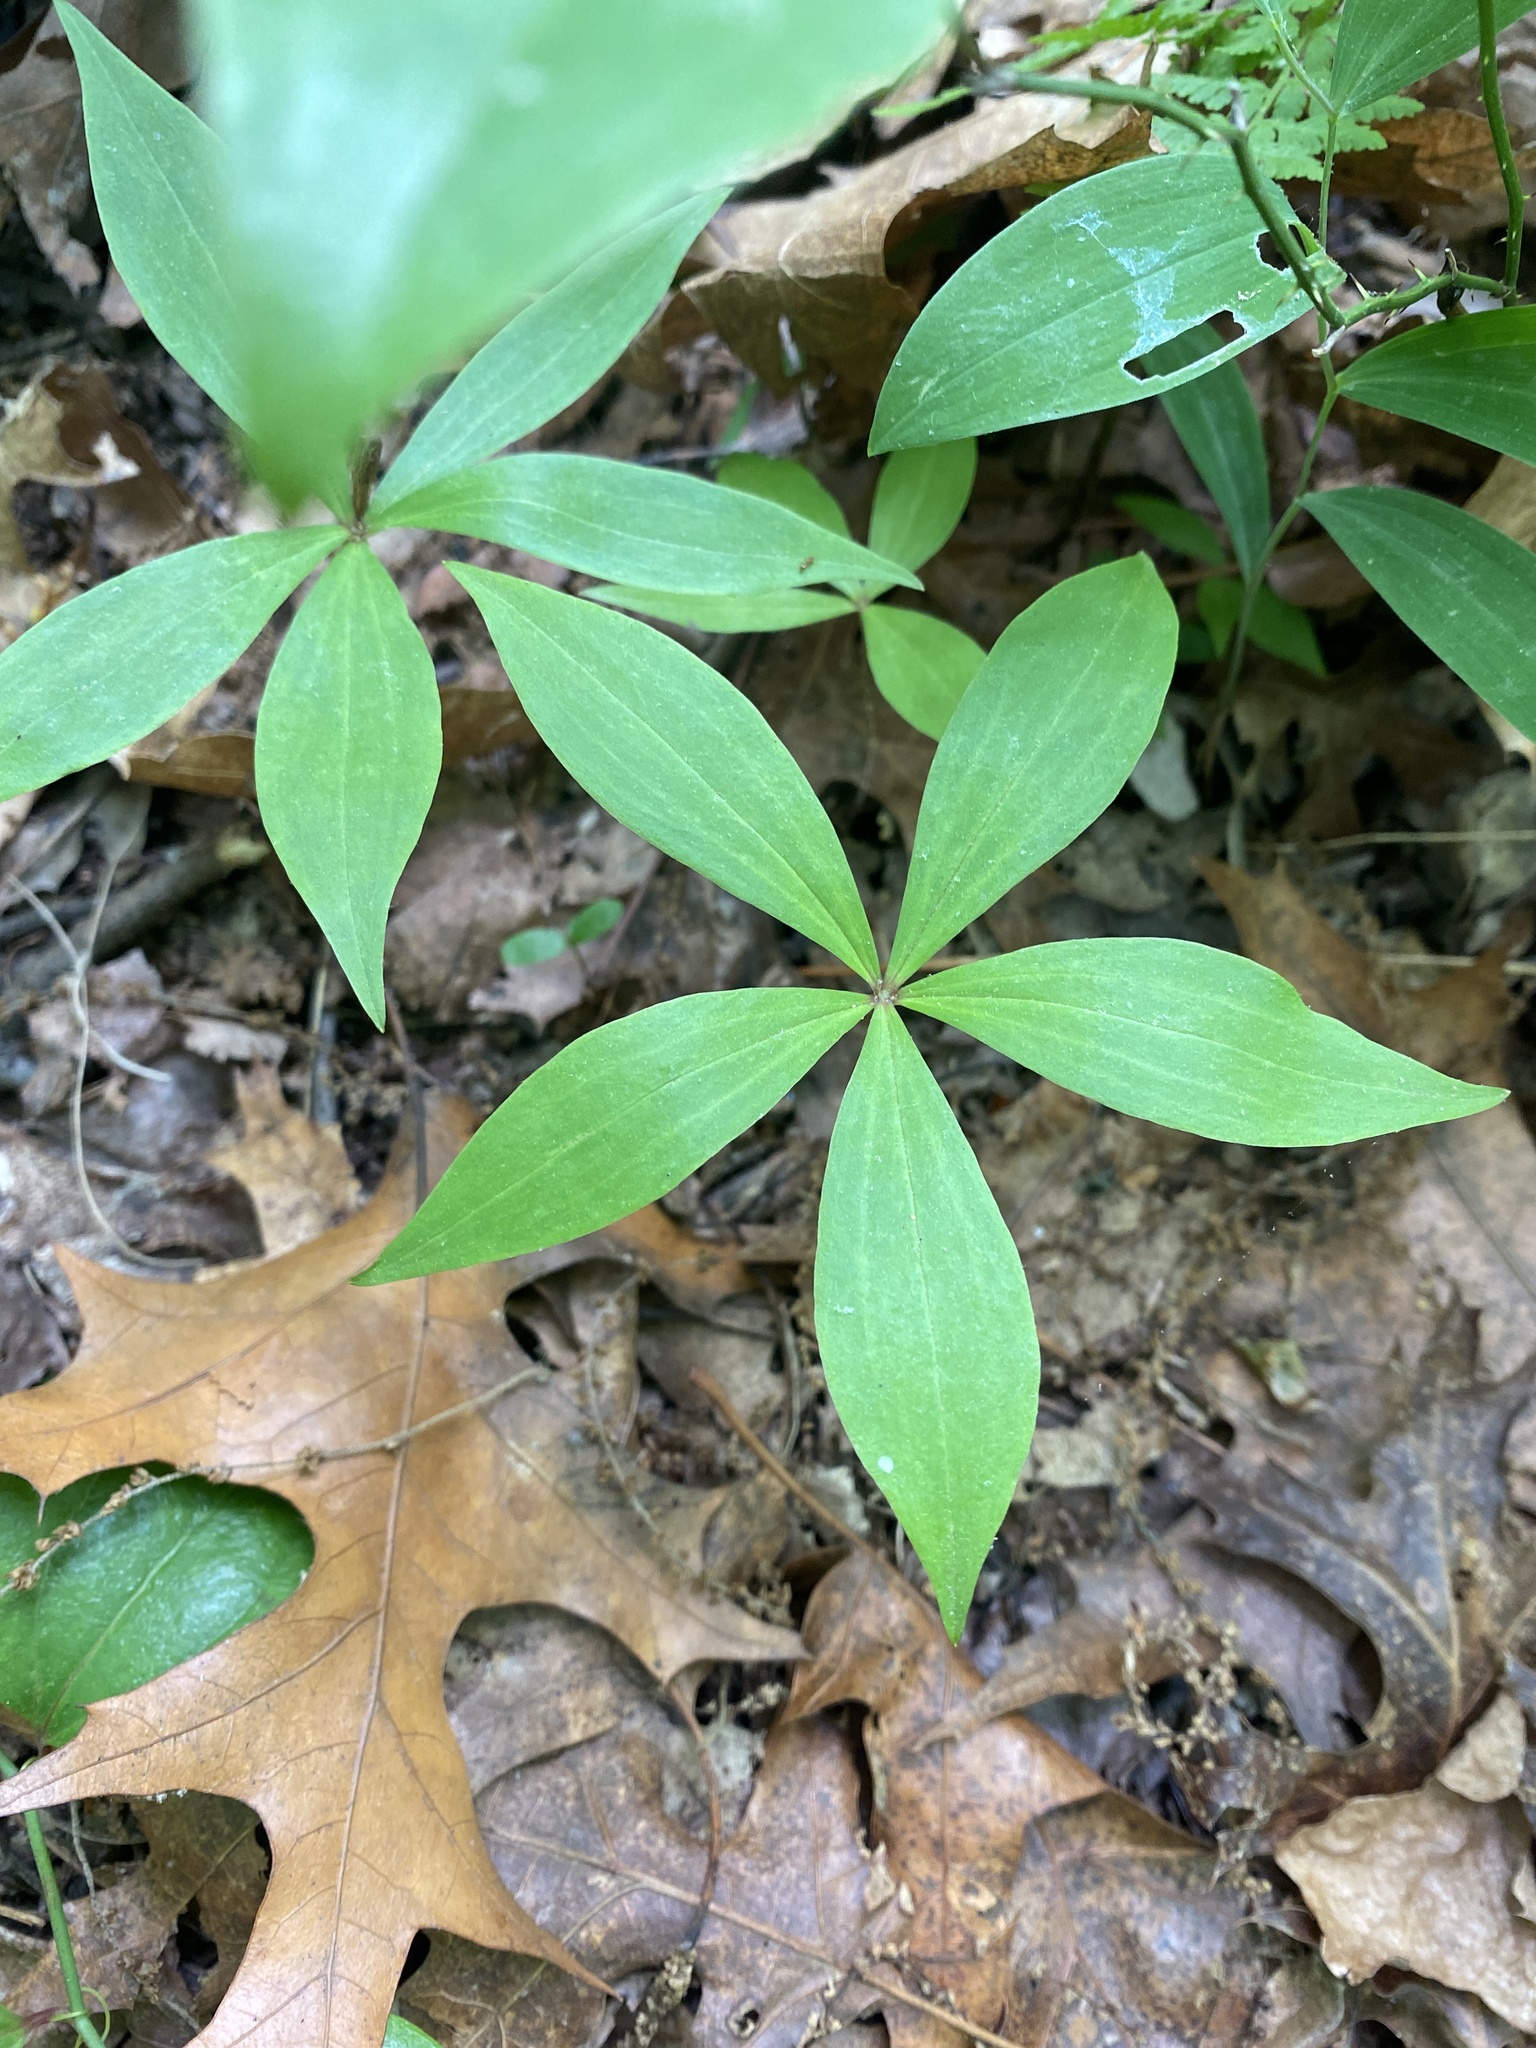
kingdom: Plantae
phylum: Tracheophyta
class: Liliopsida
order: Liliales
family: Liliaceae
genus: Medeola
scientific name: Medeola virginiana
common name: Indian cucumber-root
